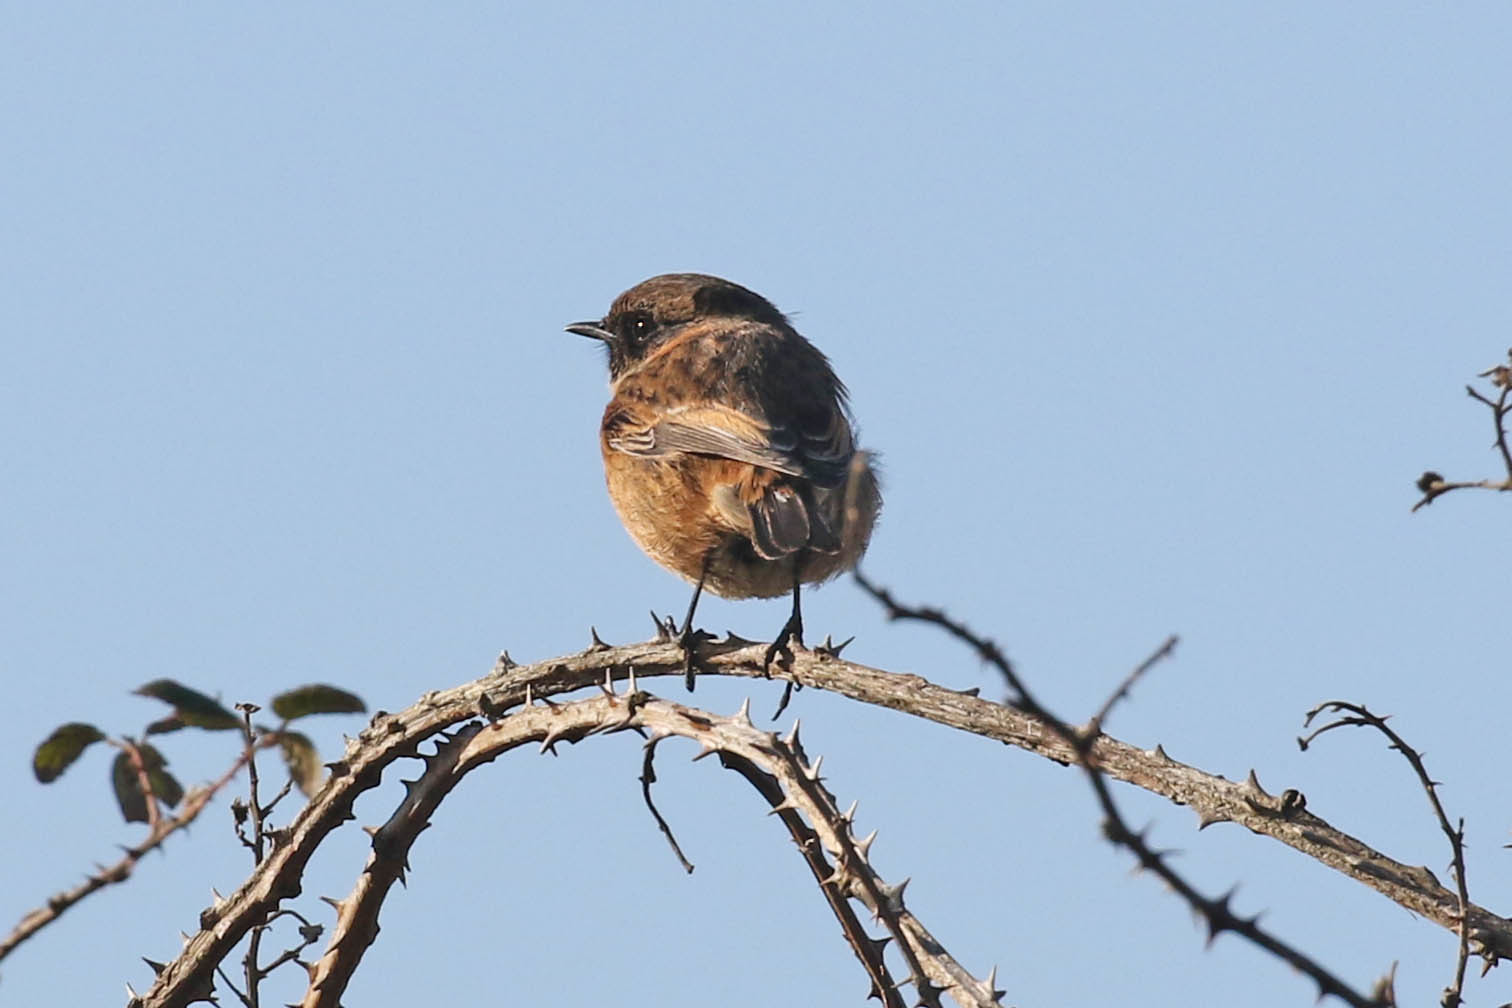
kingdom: Animalia
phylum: Chordata
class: Aves
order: Passeriformes
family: Muscicapidae
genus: Saxicola
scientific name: Saxicola rubicola
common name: European stonechat
